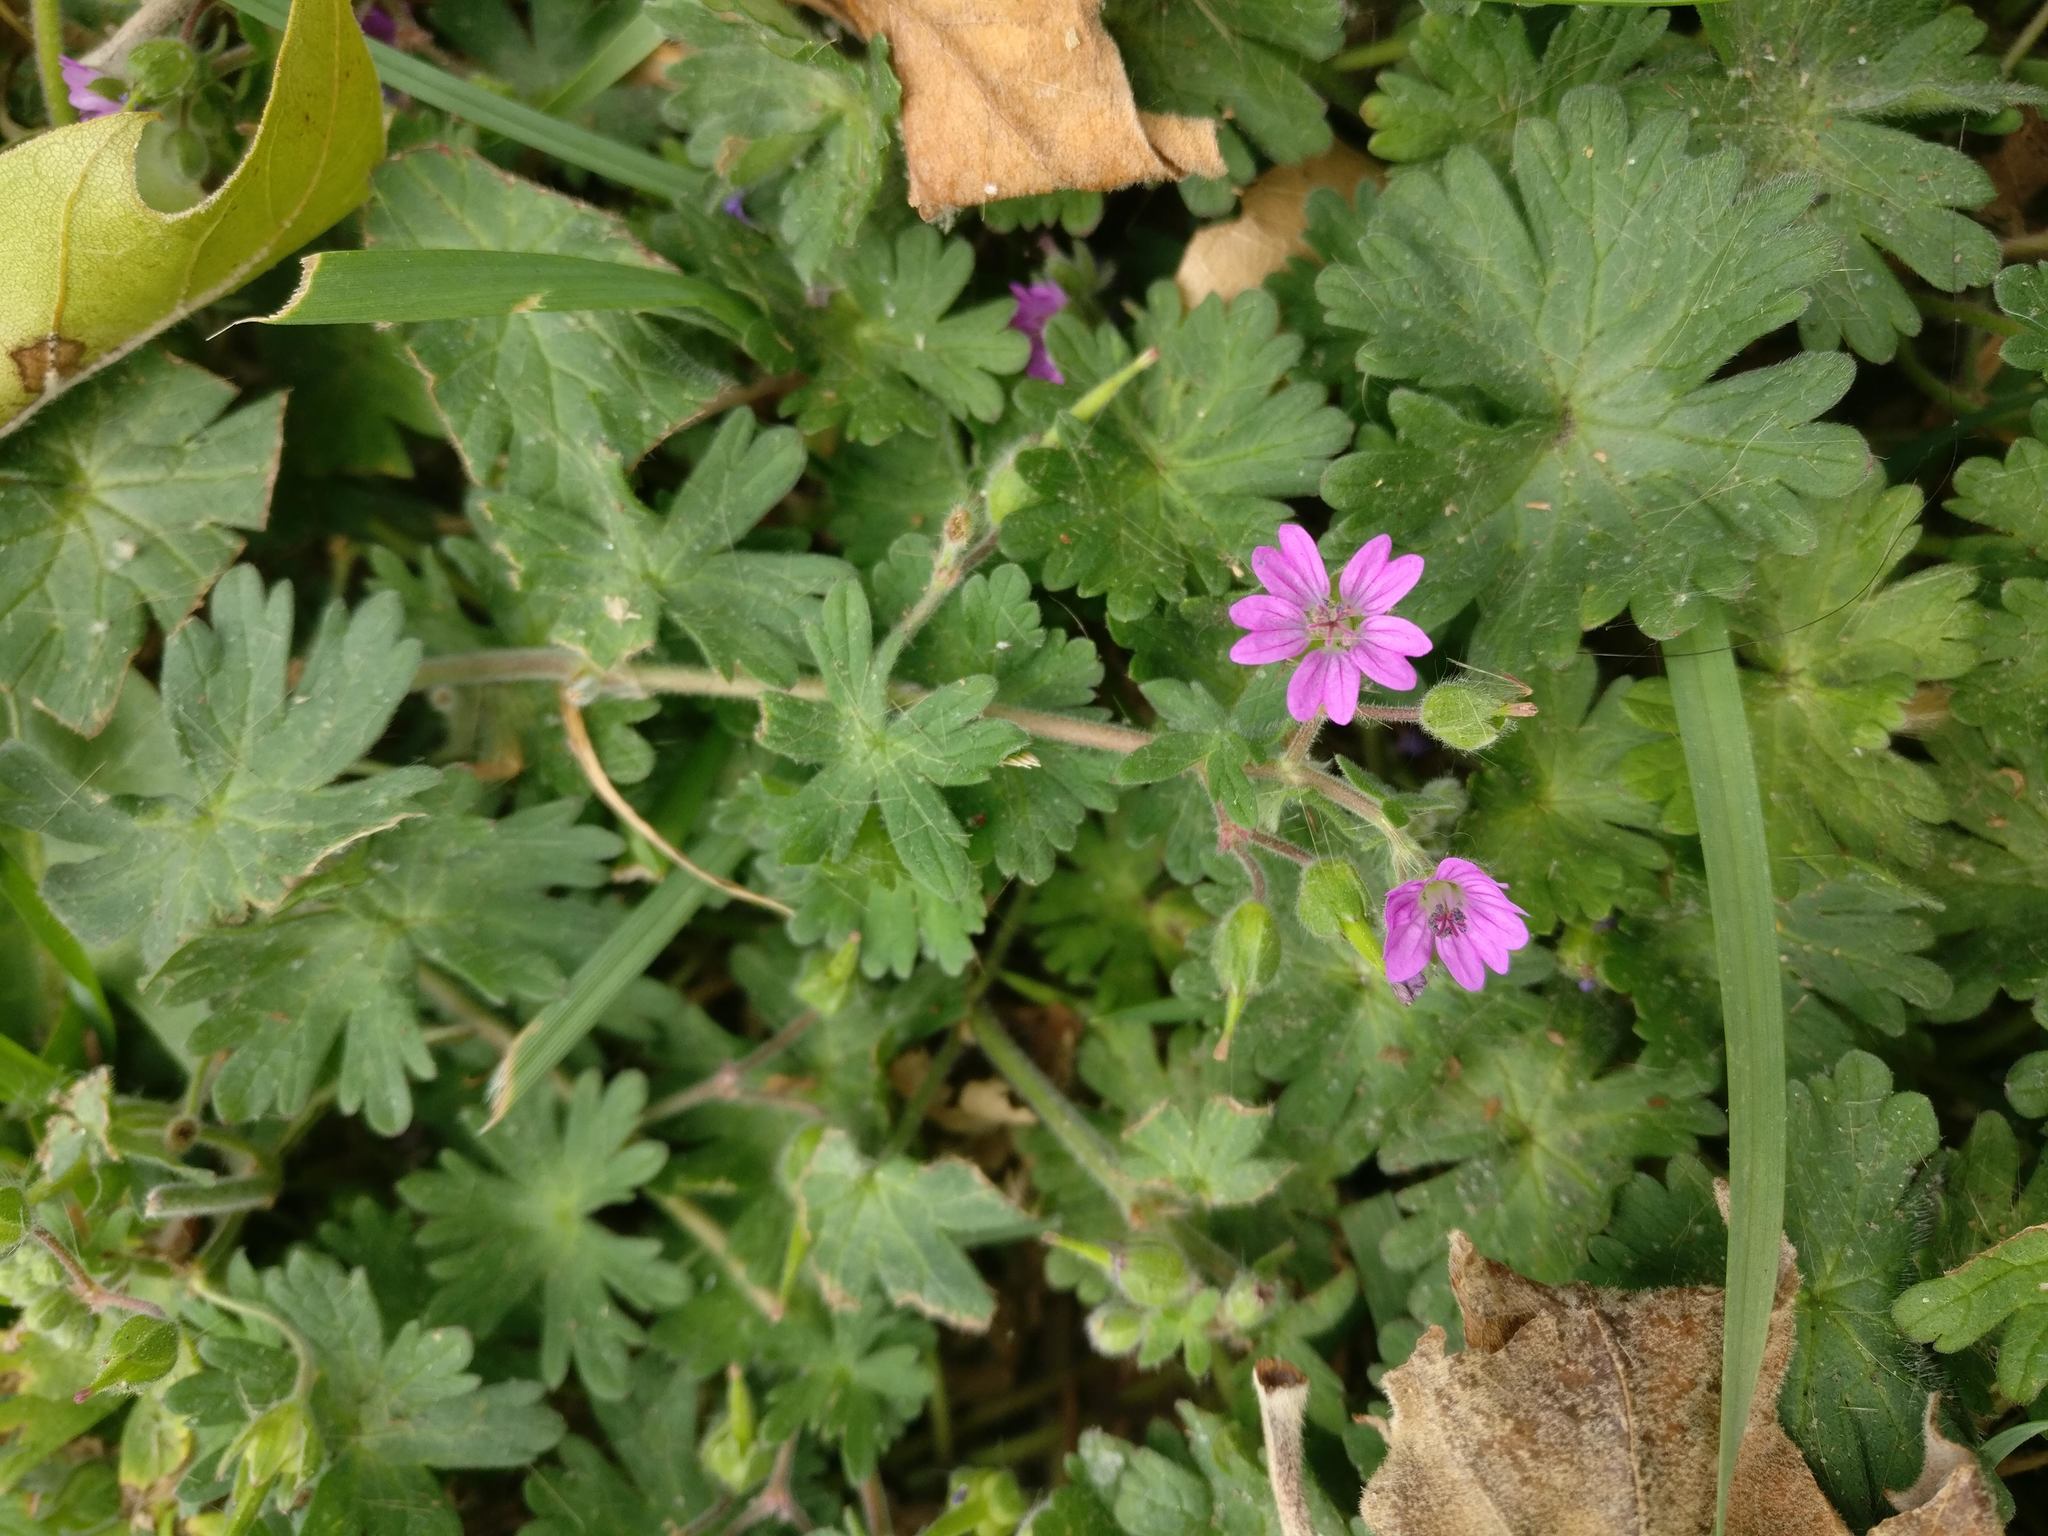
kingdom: Plantae
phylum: Tracheophyta
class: Magnoliopsida
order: Geraniales
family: Geraniaceae
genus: Geranium
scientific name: Geranium molle
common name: Dove's-foot crane's-bill
